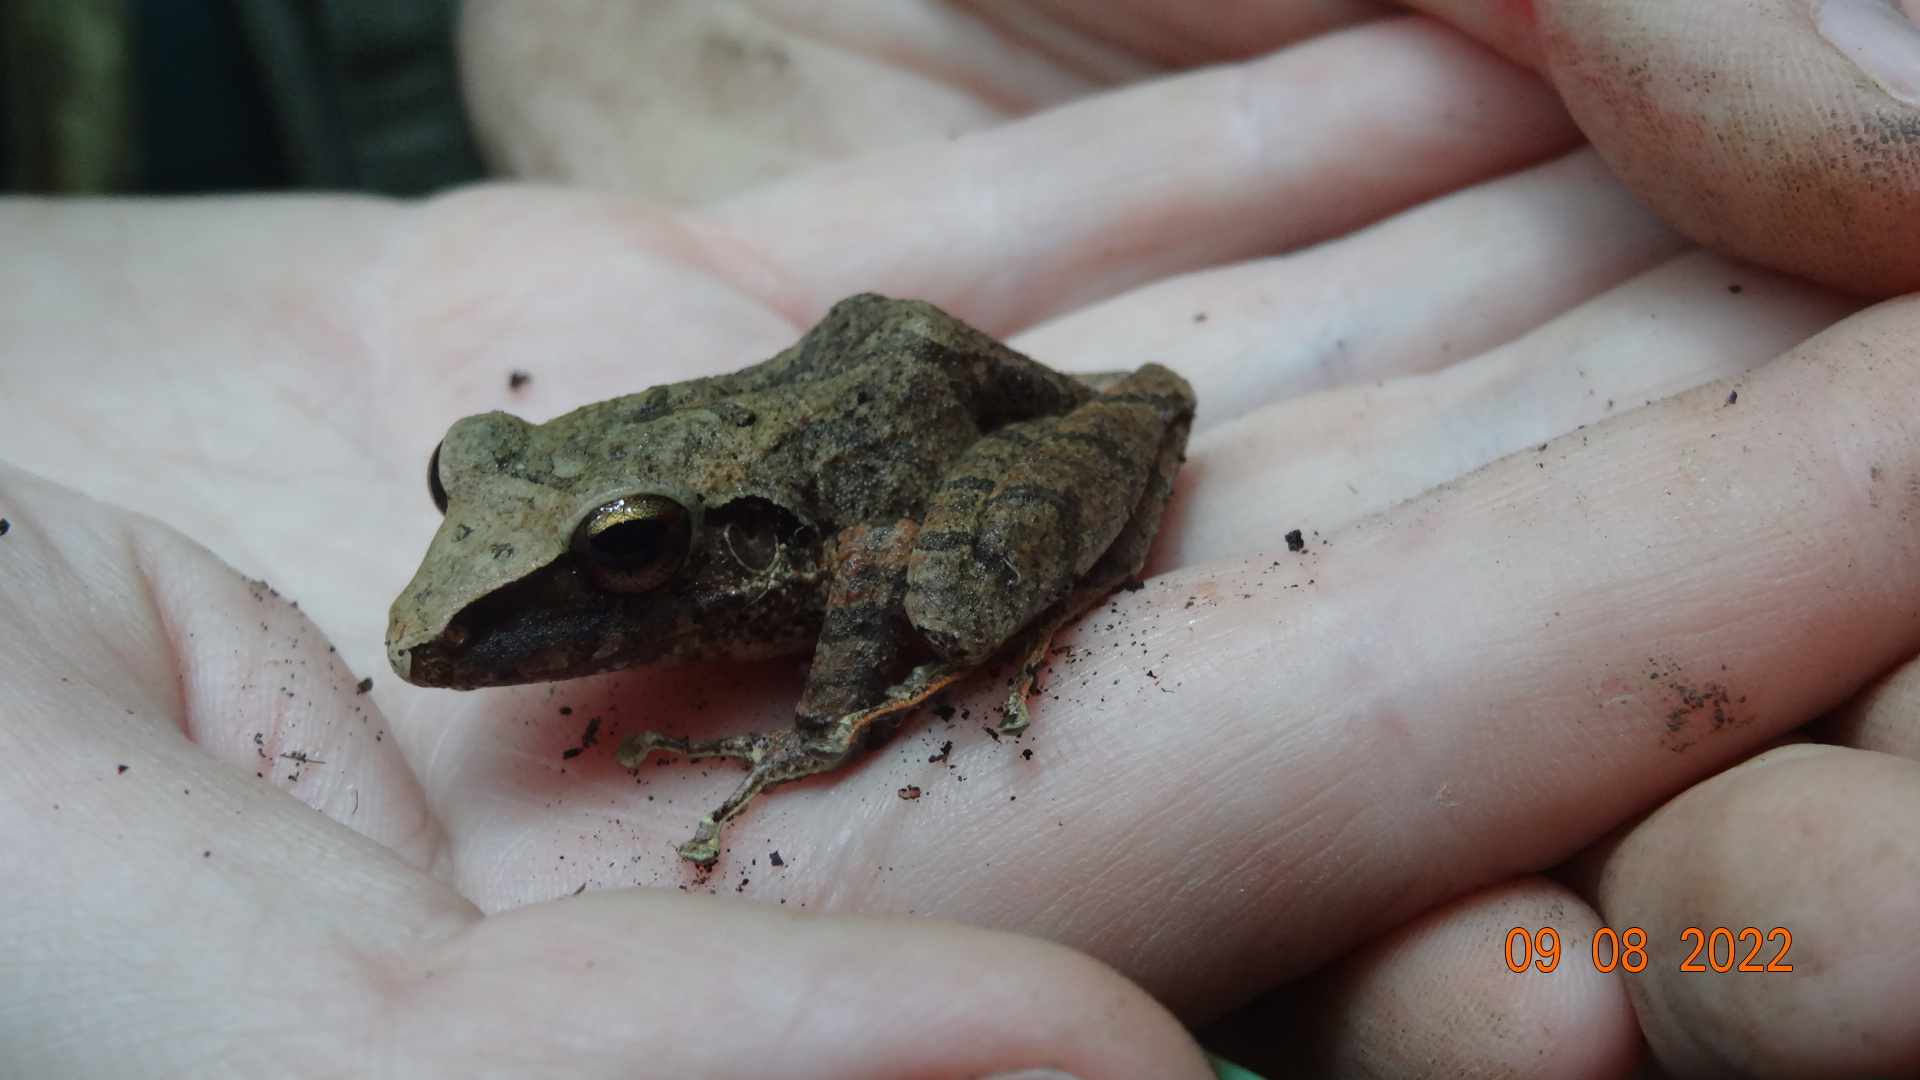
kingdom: Animalia
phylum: Chordata
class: Amphibia
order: Anura
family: Craugastoridae
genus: Pristimantis
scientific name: Pristimantis achatinus
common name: Cachabi robber frog
